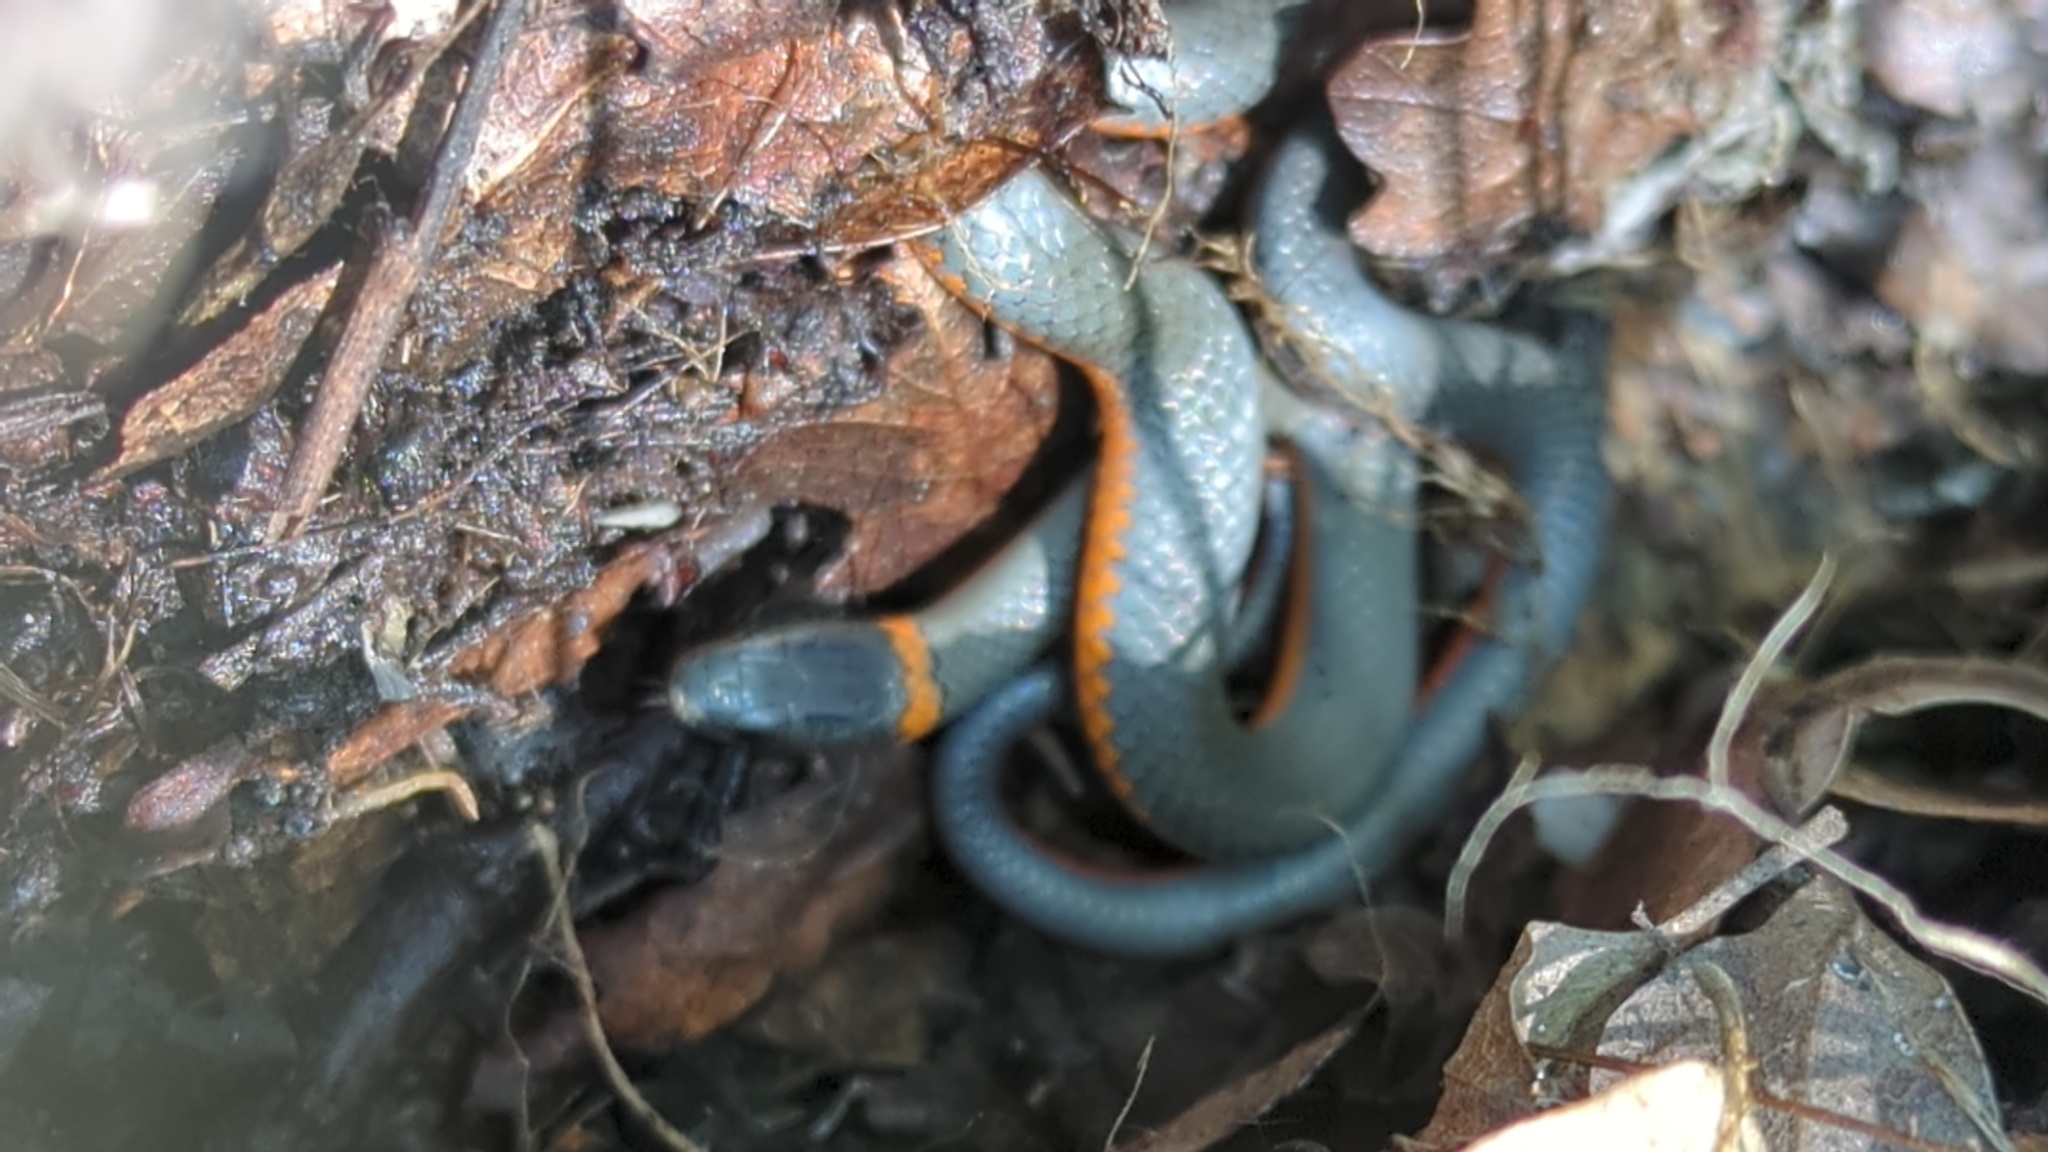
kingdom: Animalia
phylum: Chordata
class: Squamata
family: Colubridae
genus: Diadophis
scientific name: Diadophis punctatus
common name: Ringneck snake
